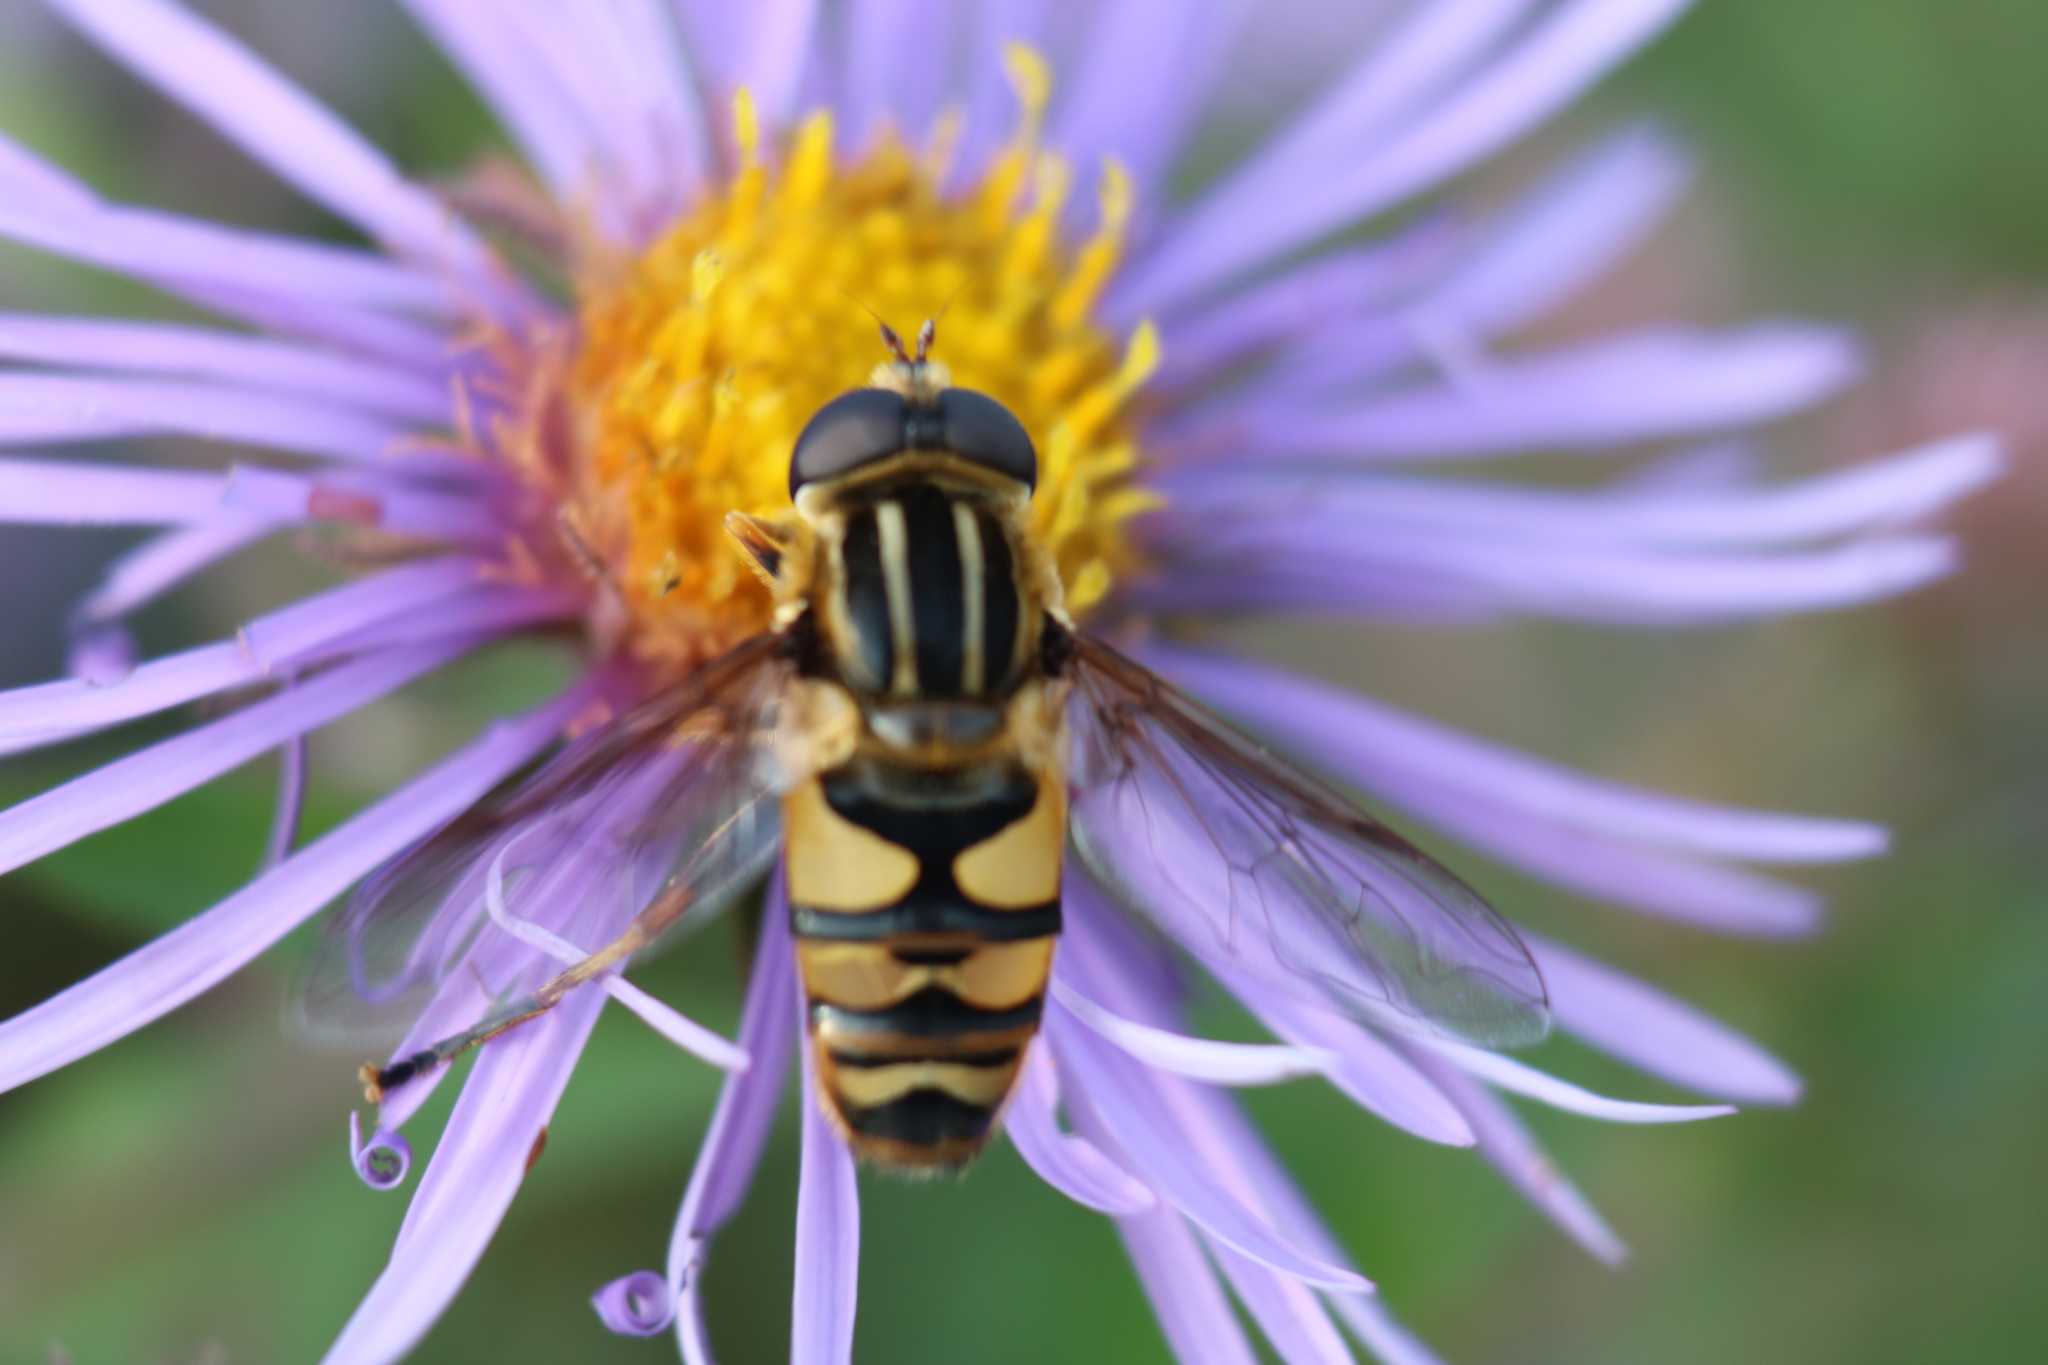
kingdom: Animalia
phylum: Arthropoda
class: Insecta
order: Diptera
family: Syrphidae
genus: Helophilus
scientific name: Helophilus fasciatus
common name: Narrow-headed marsh fly
